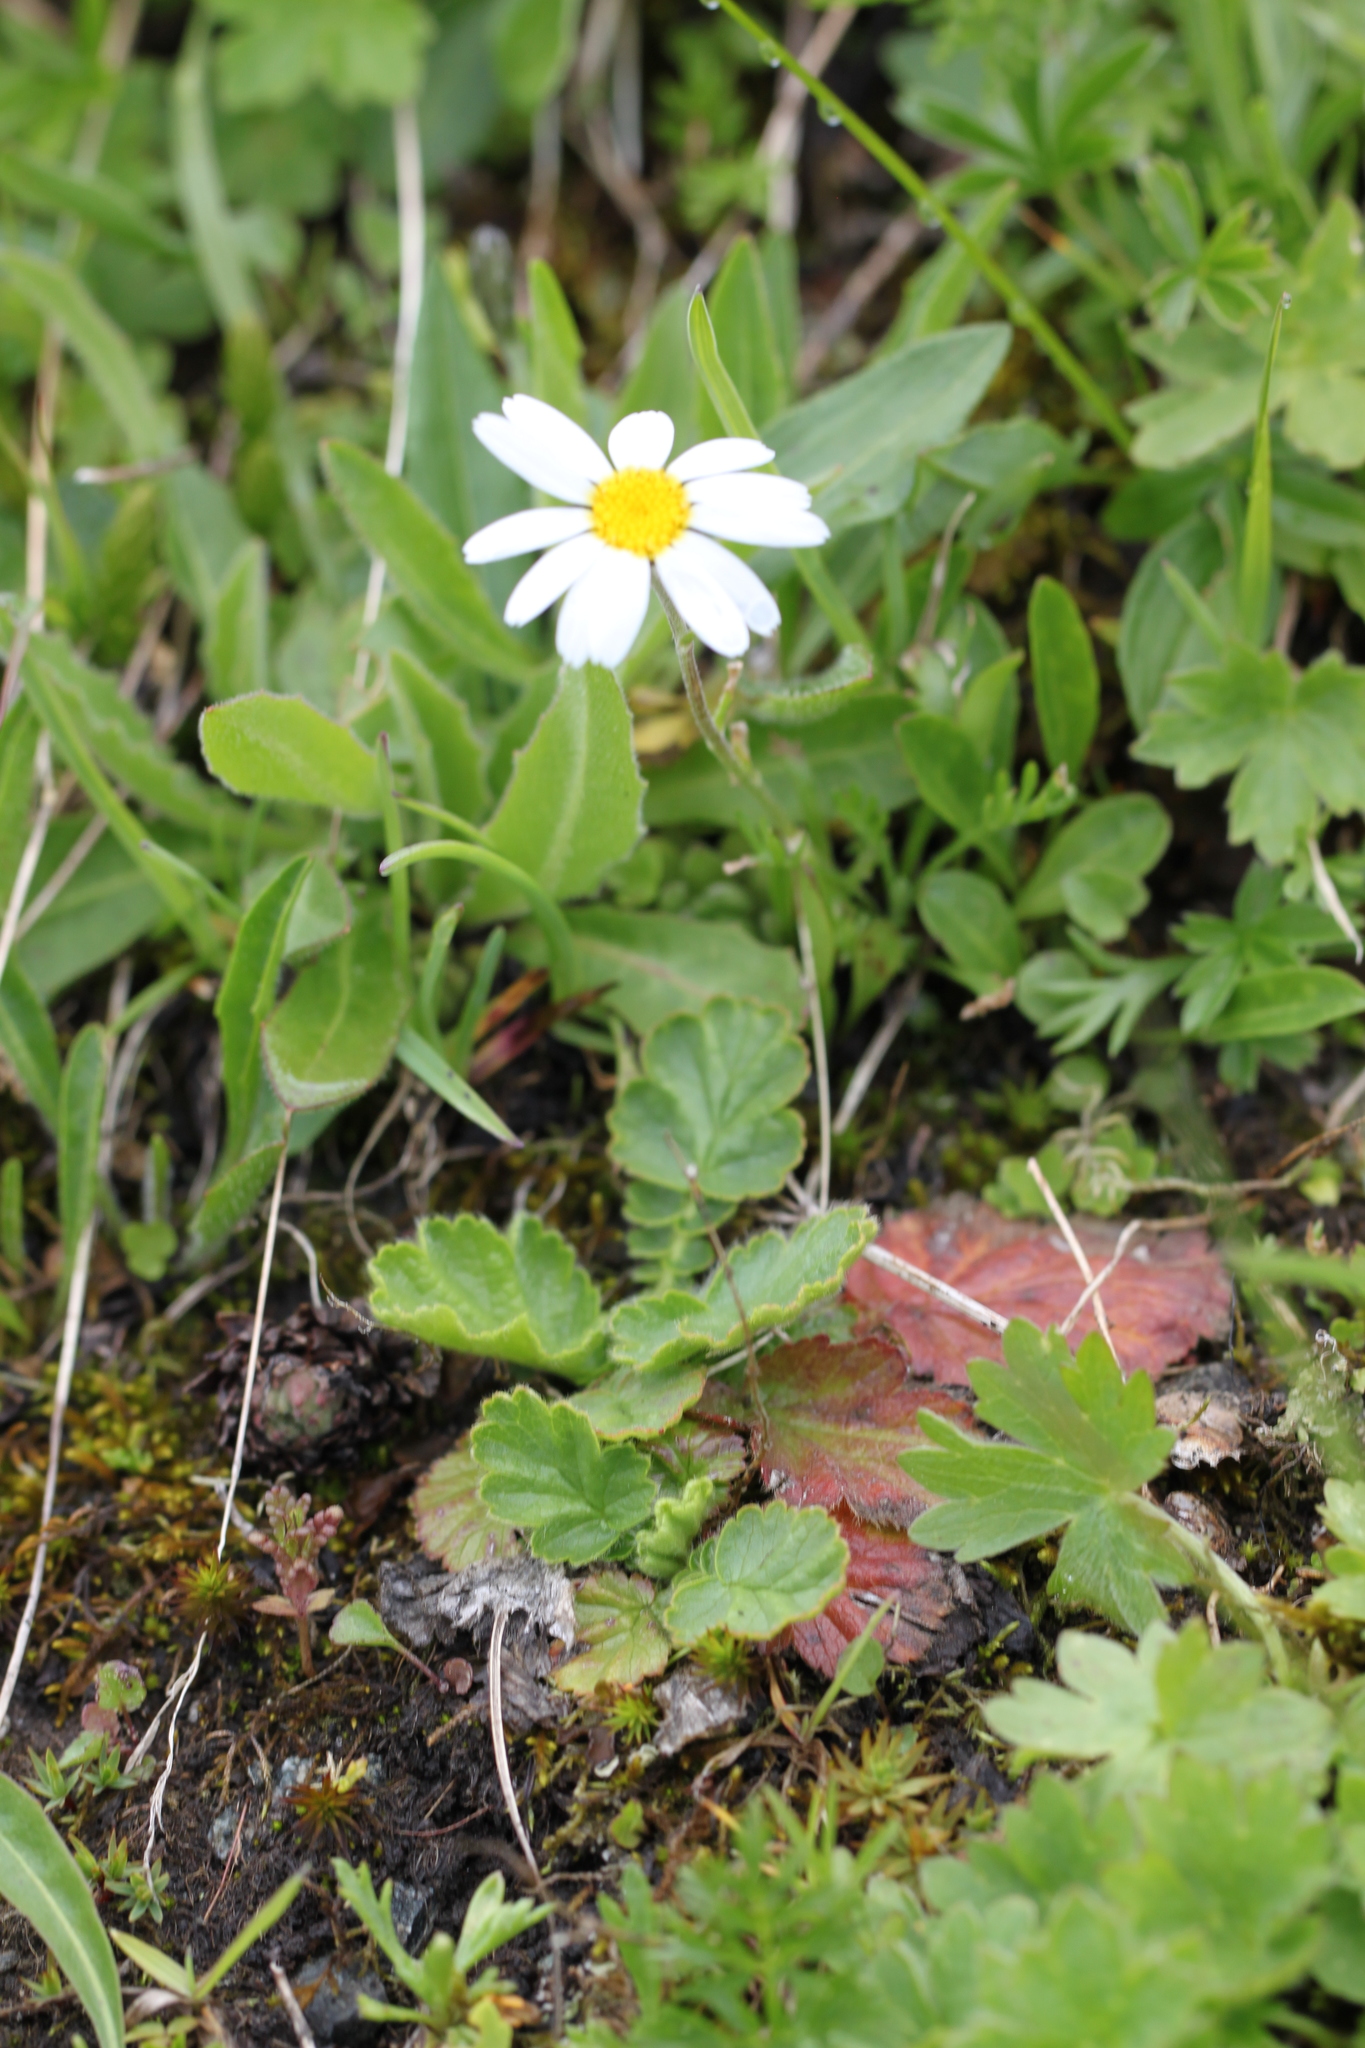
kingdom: Plantae
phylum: Tracheophyta
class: Magnoliopsida
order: Asterales
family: Asteraceae
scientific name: Asteraceae
